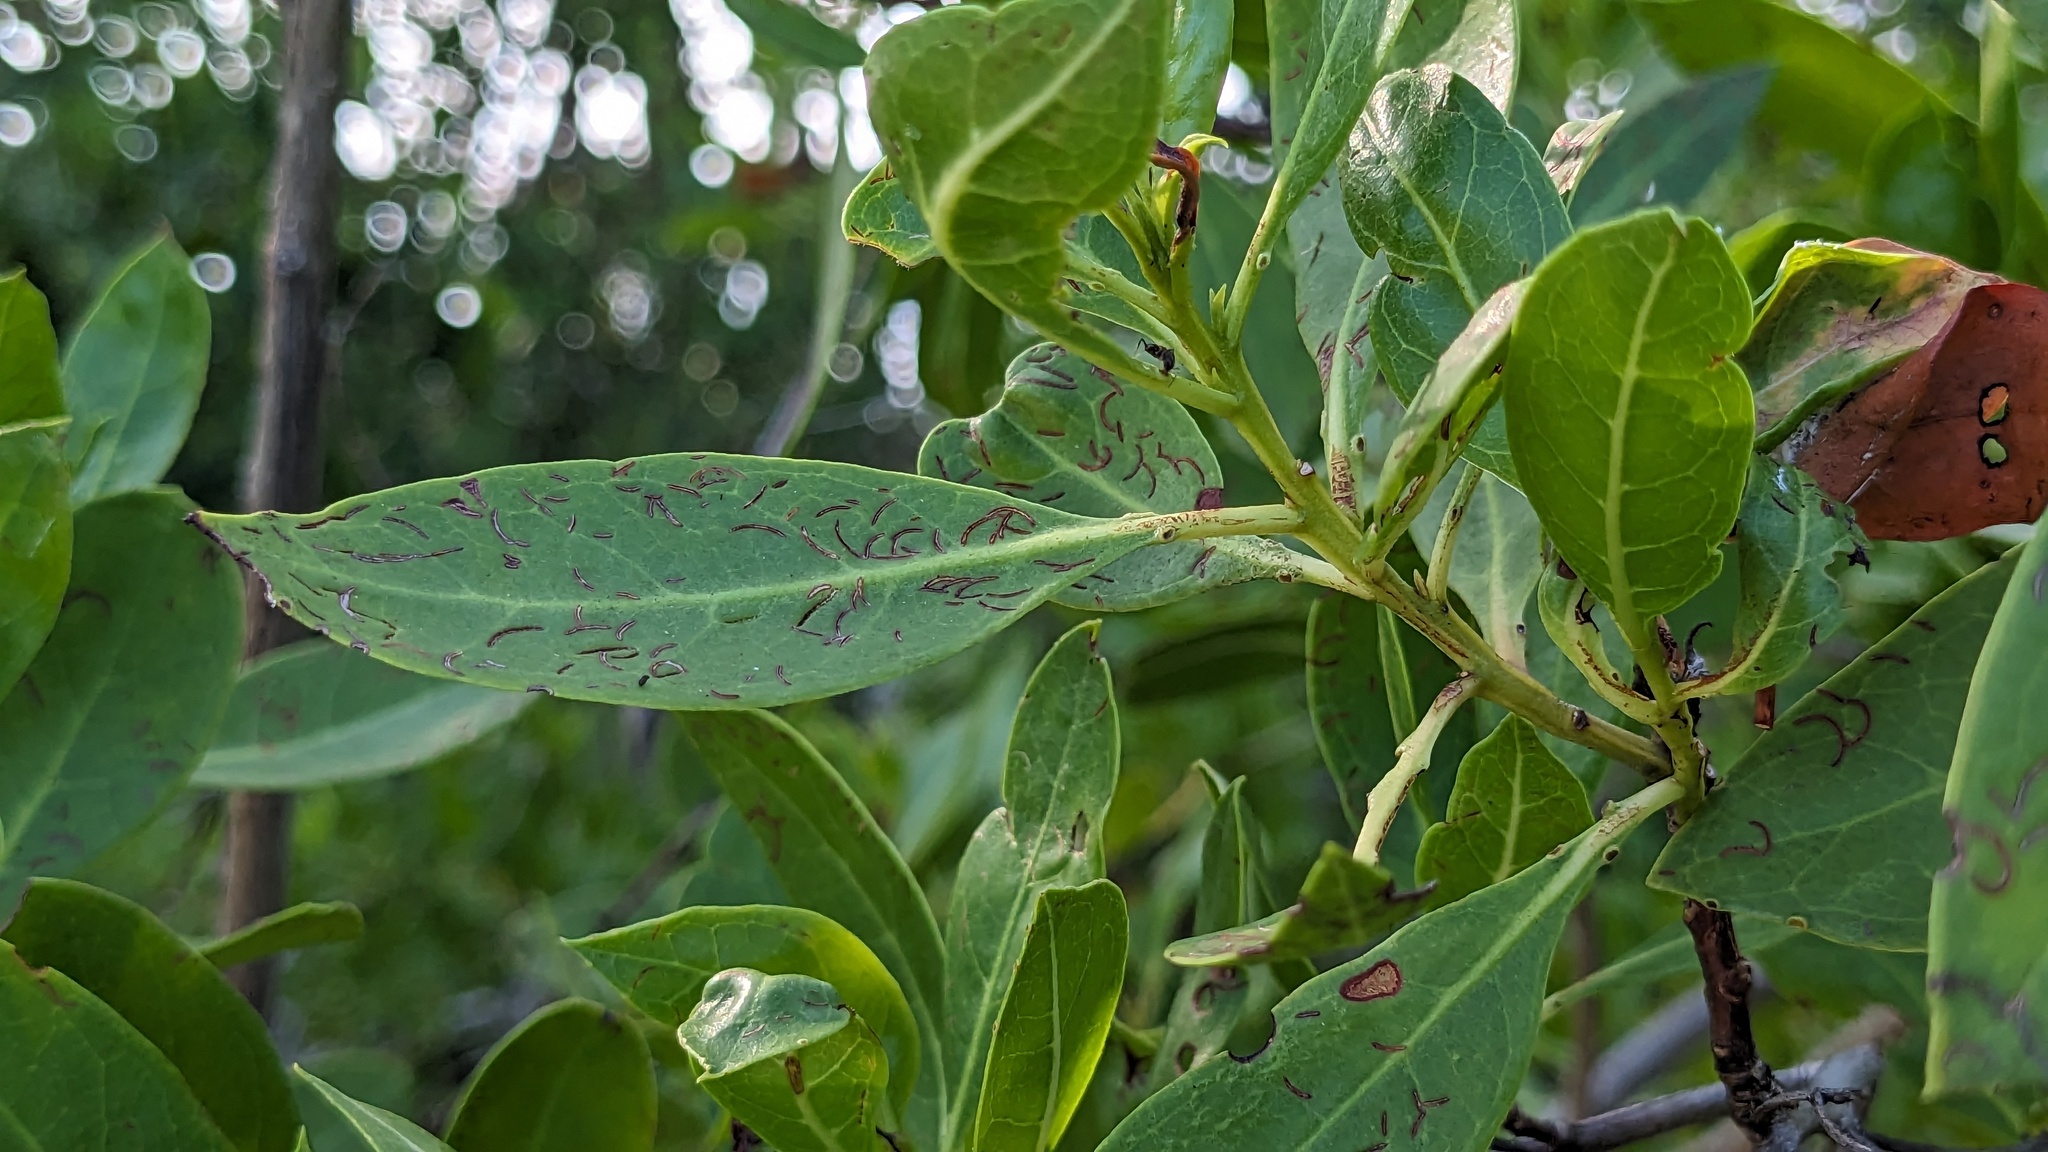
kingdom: Animalia
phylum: Arthropoda
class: Insecta
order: Coleoptera
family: Chrysomelidae
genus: Chaetocnema
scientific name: Chaetocnema brunnescens
